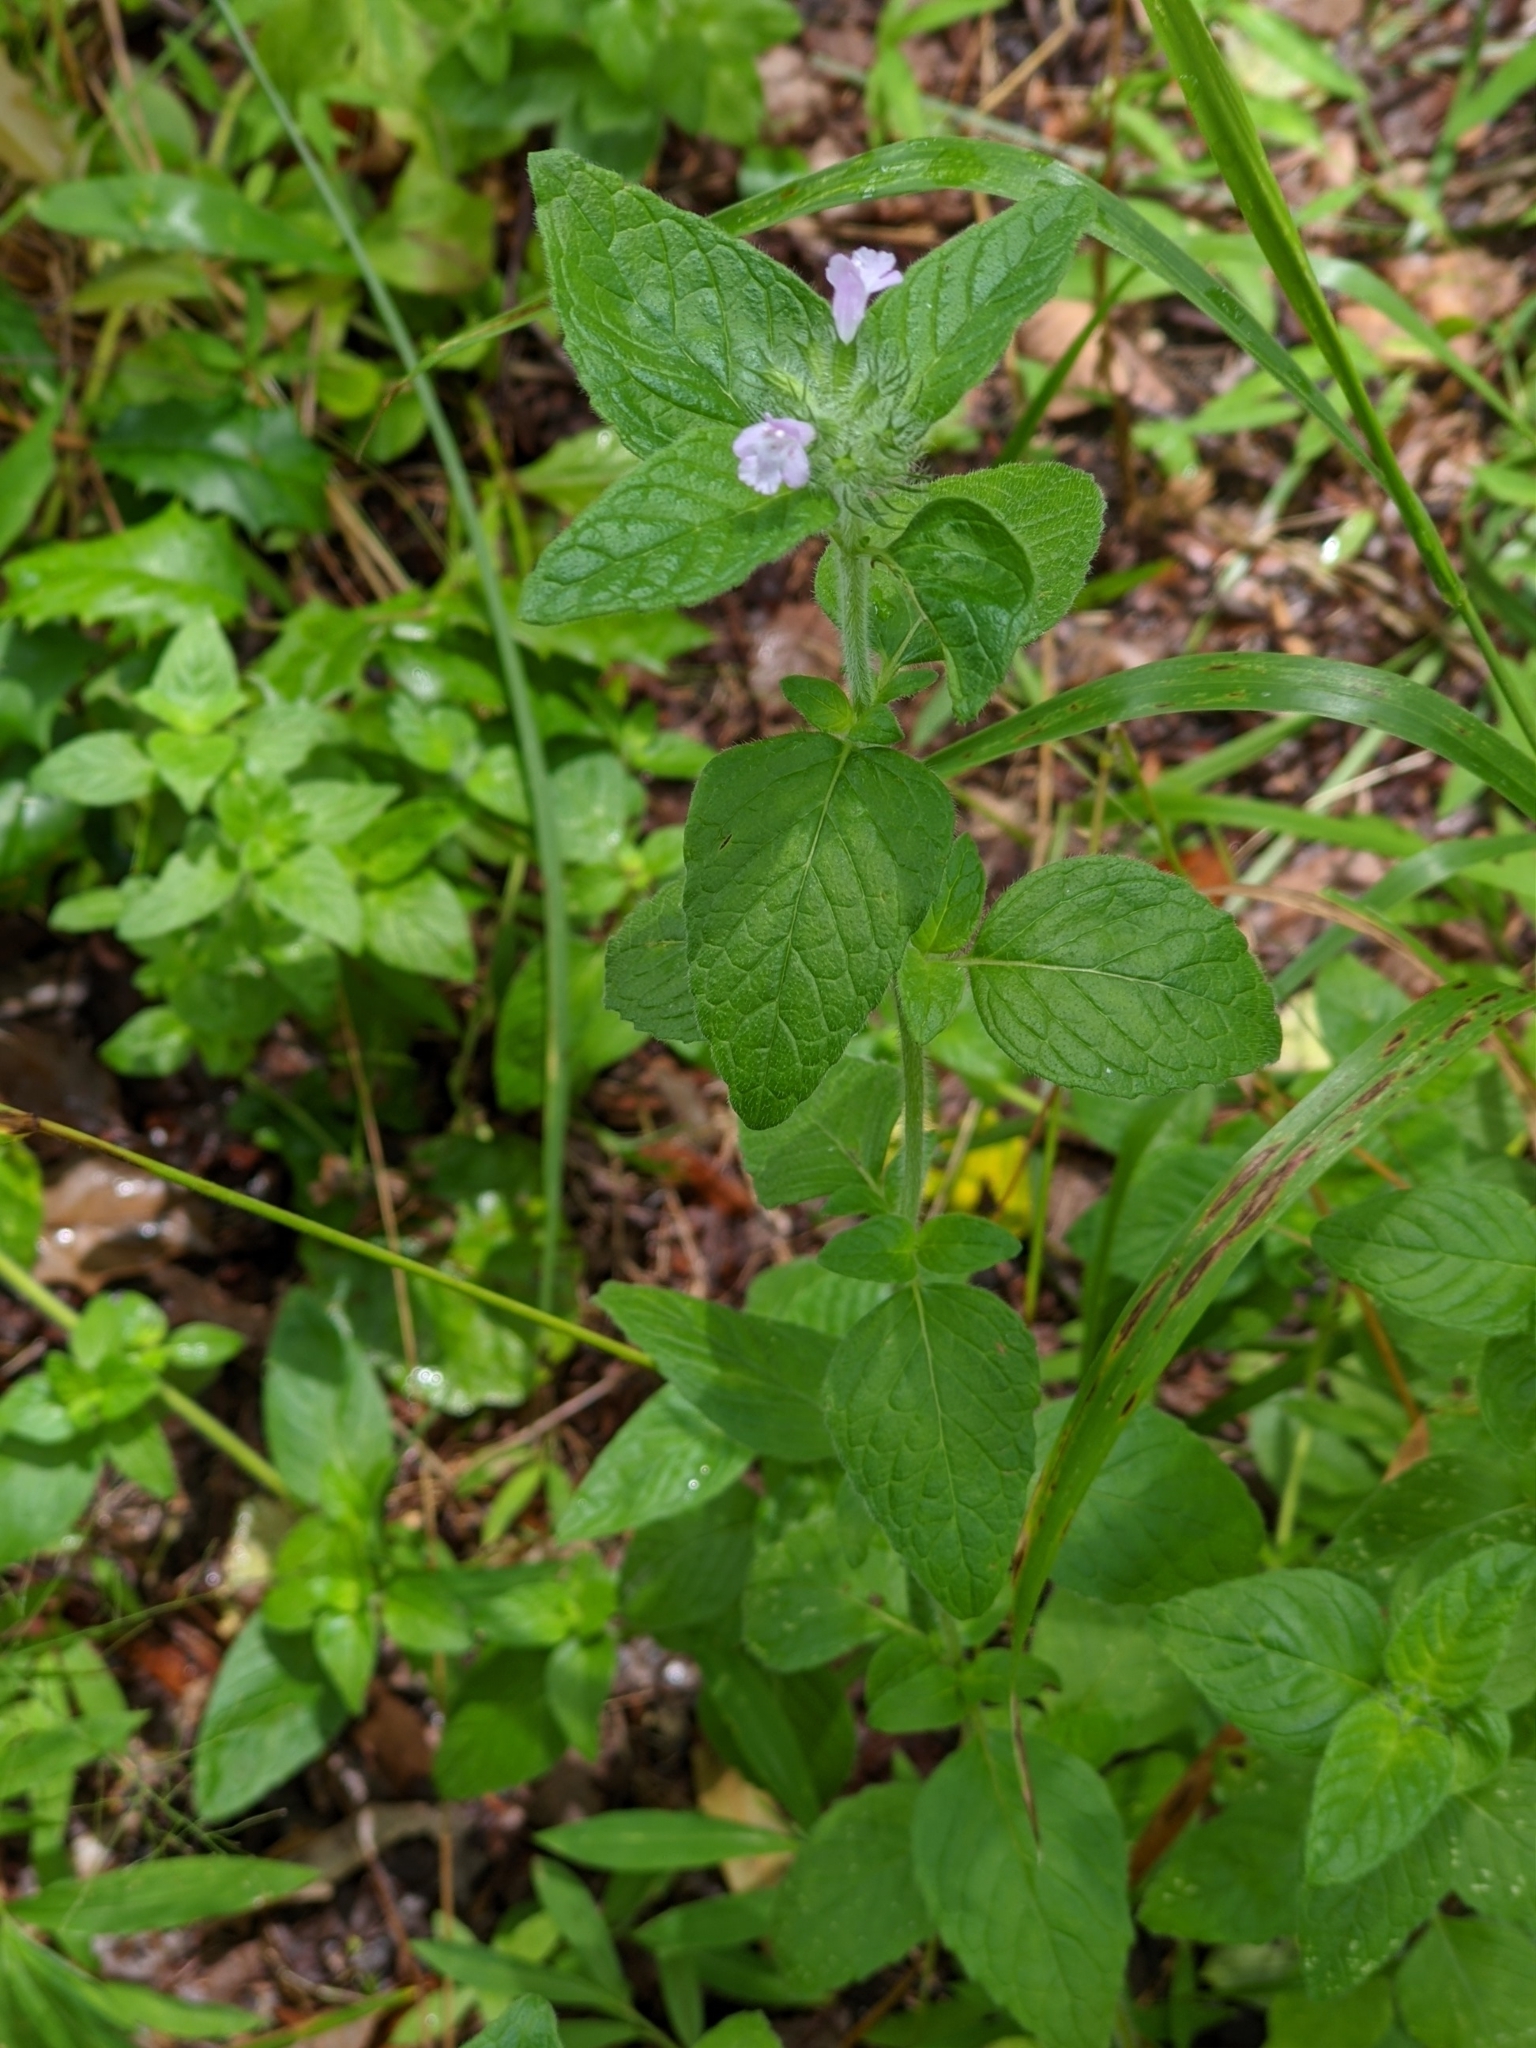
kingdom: Plantae
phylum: Tracheophyta
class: Magnoliopsida
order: Lamiales
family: Lamiaceae
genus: Clinopodium
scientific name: Clinopodium vulgare
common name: Wild basil
